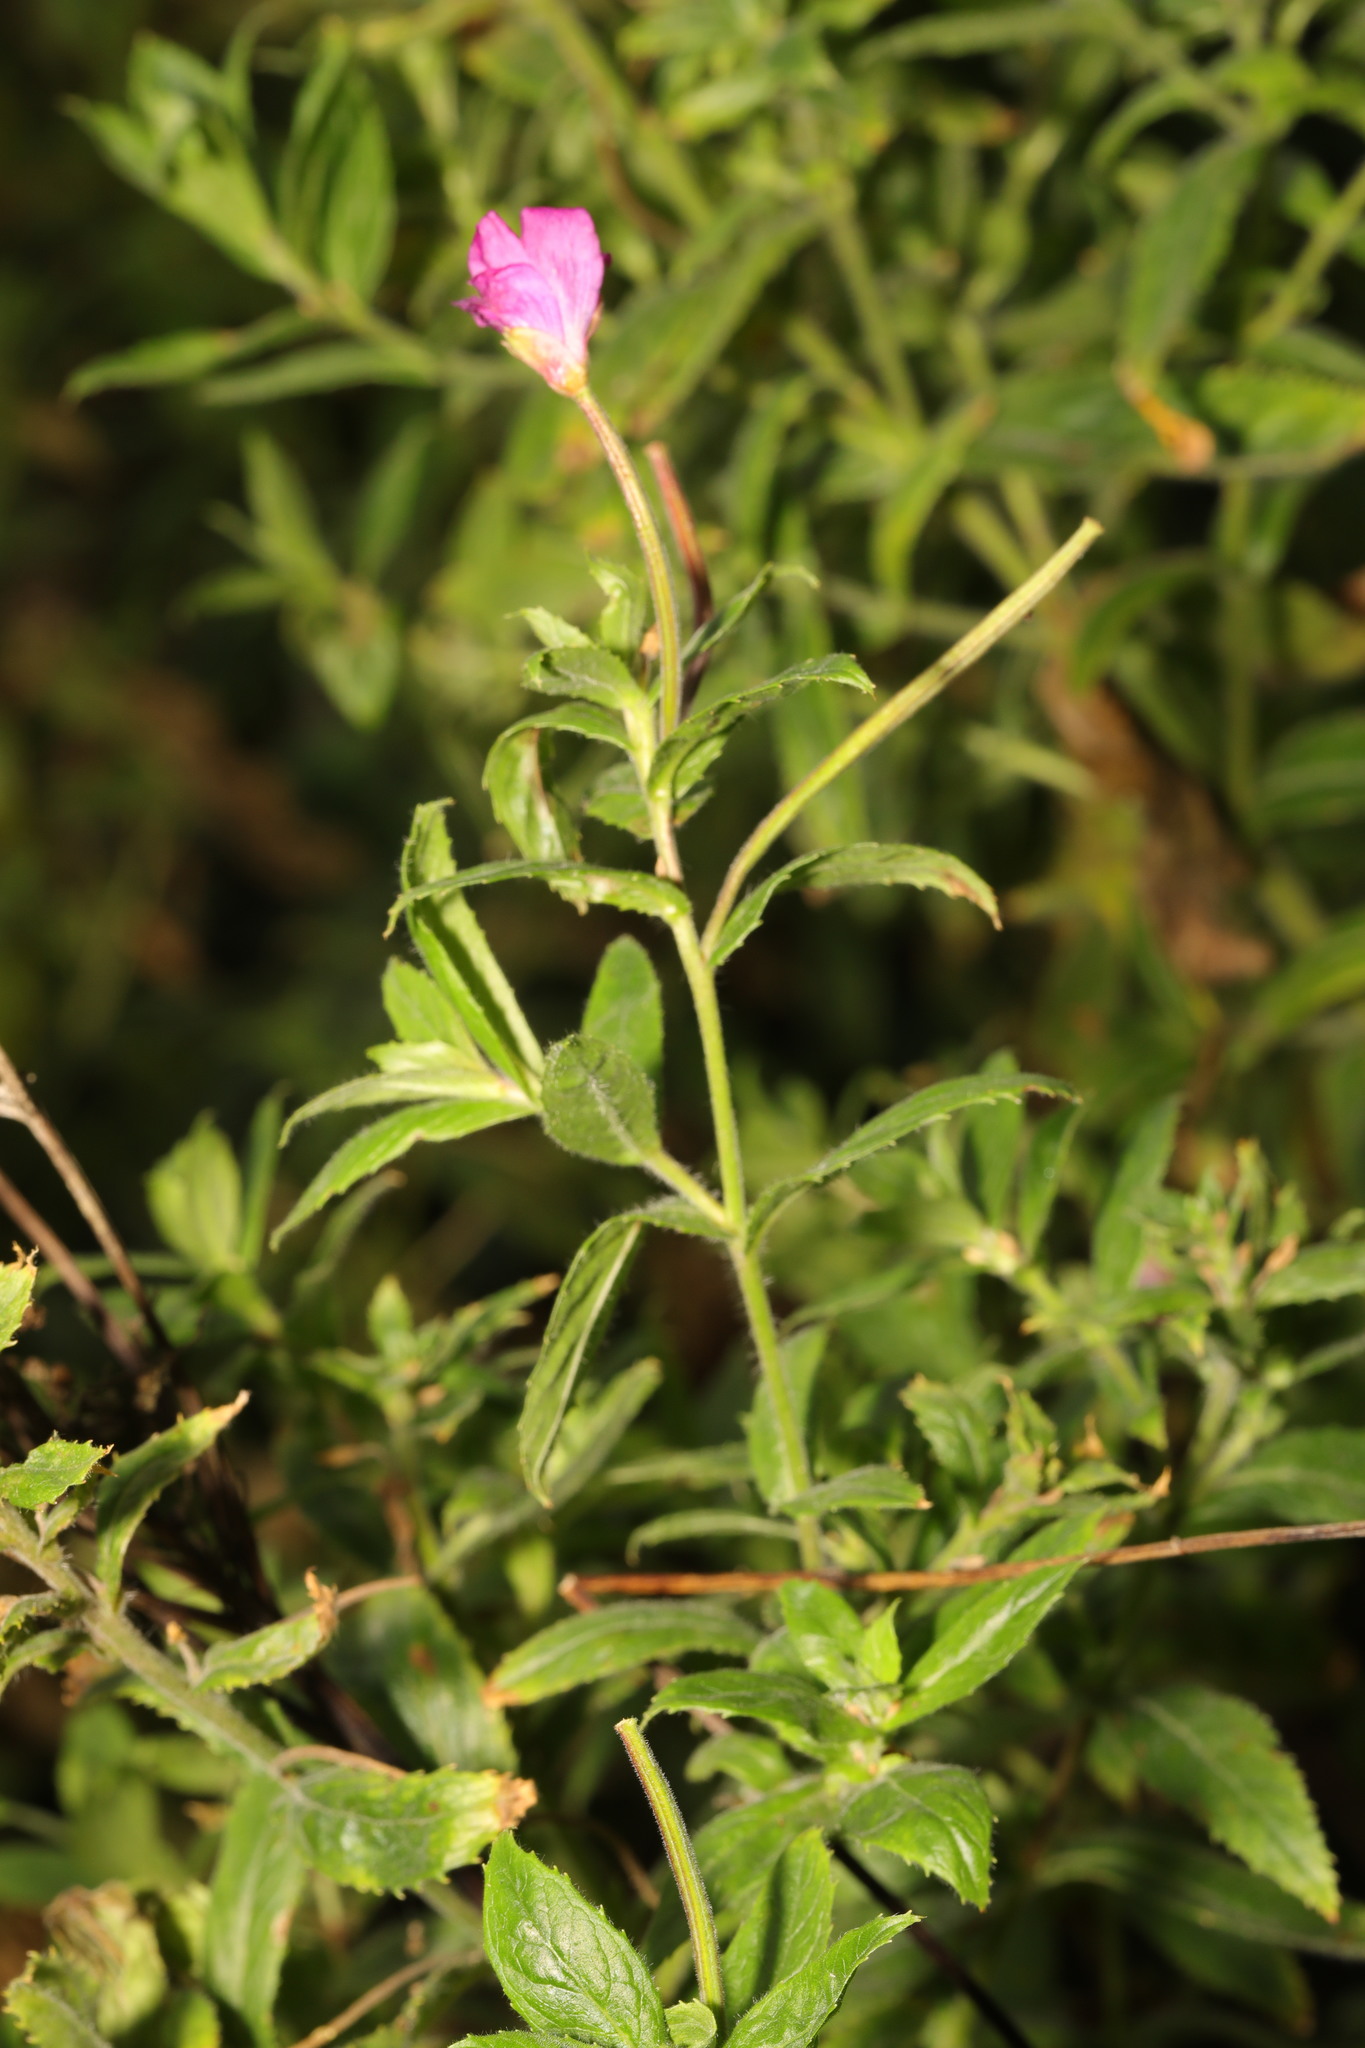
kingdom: Plantae
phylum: Tracheophyta
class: Magnoliopsida
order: Myrtales
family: Onagraceae
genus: Epilobium
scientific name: Epilobium hirsutum
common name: Great willowherb
